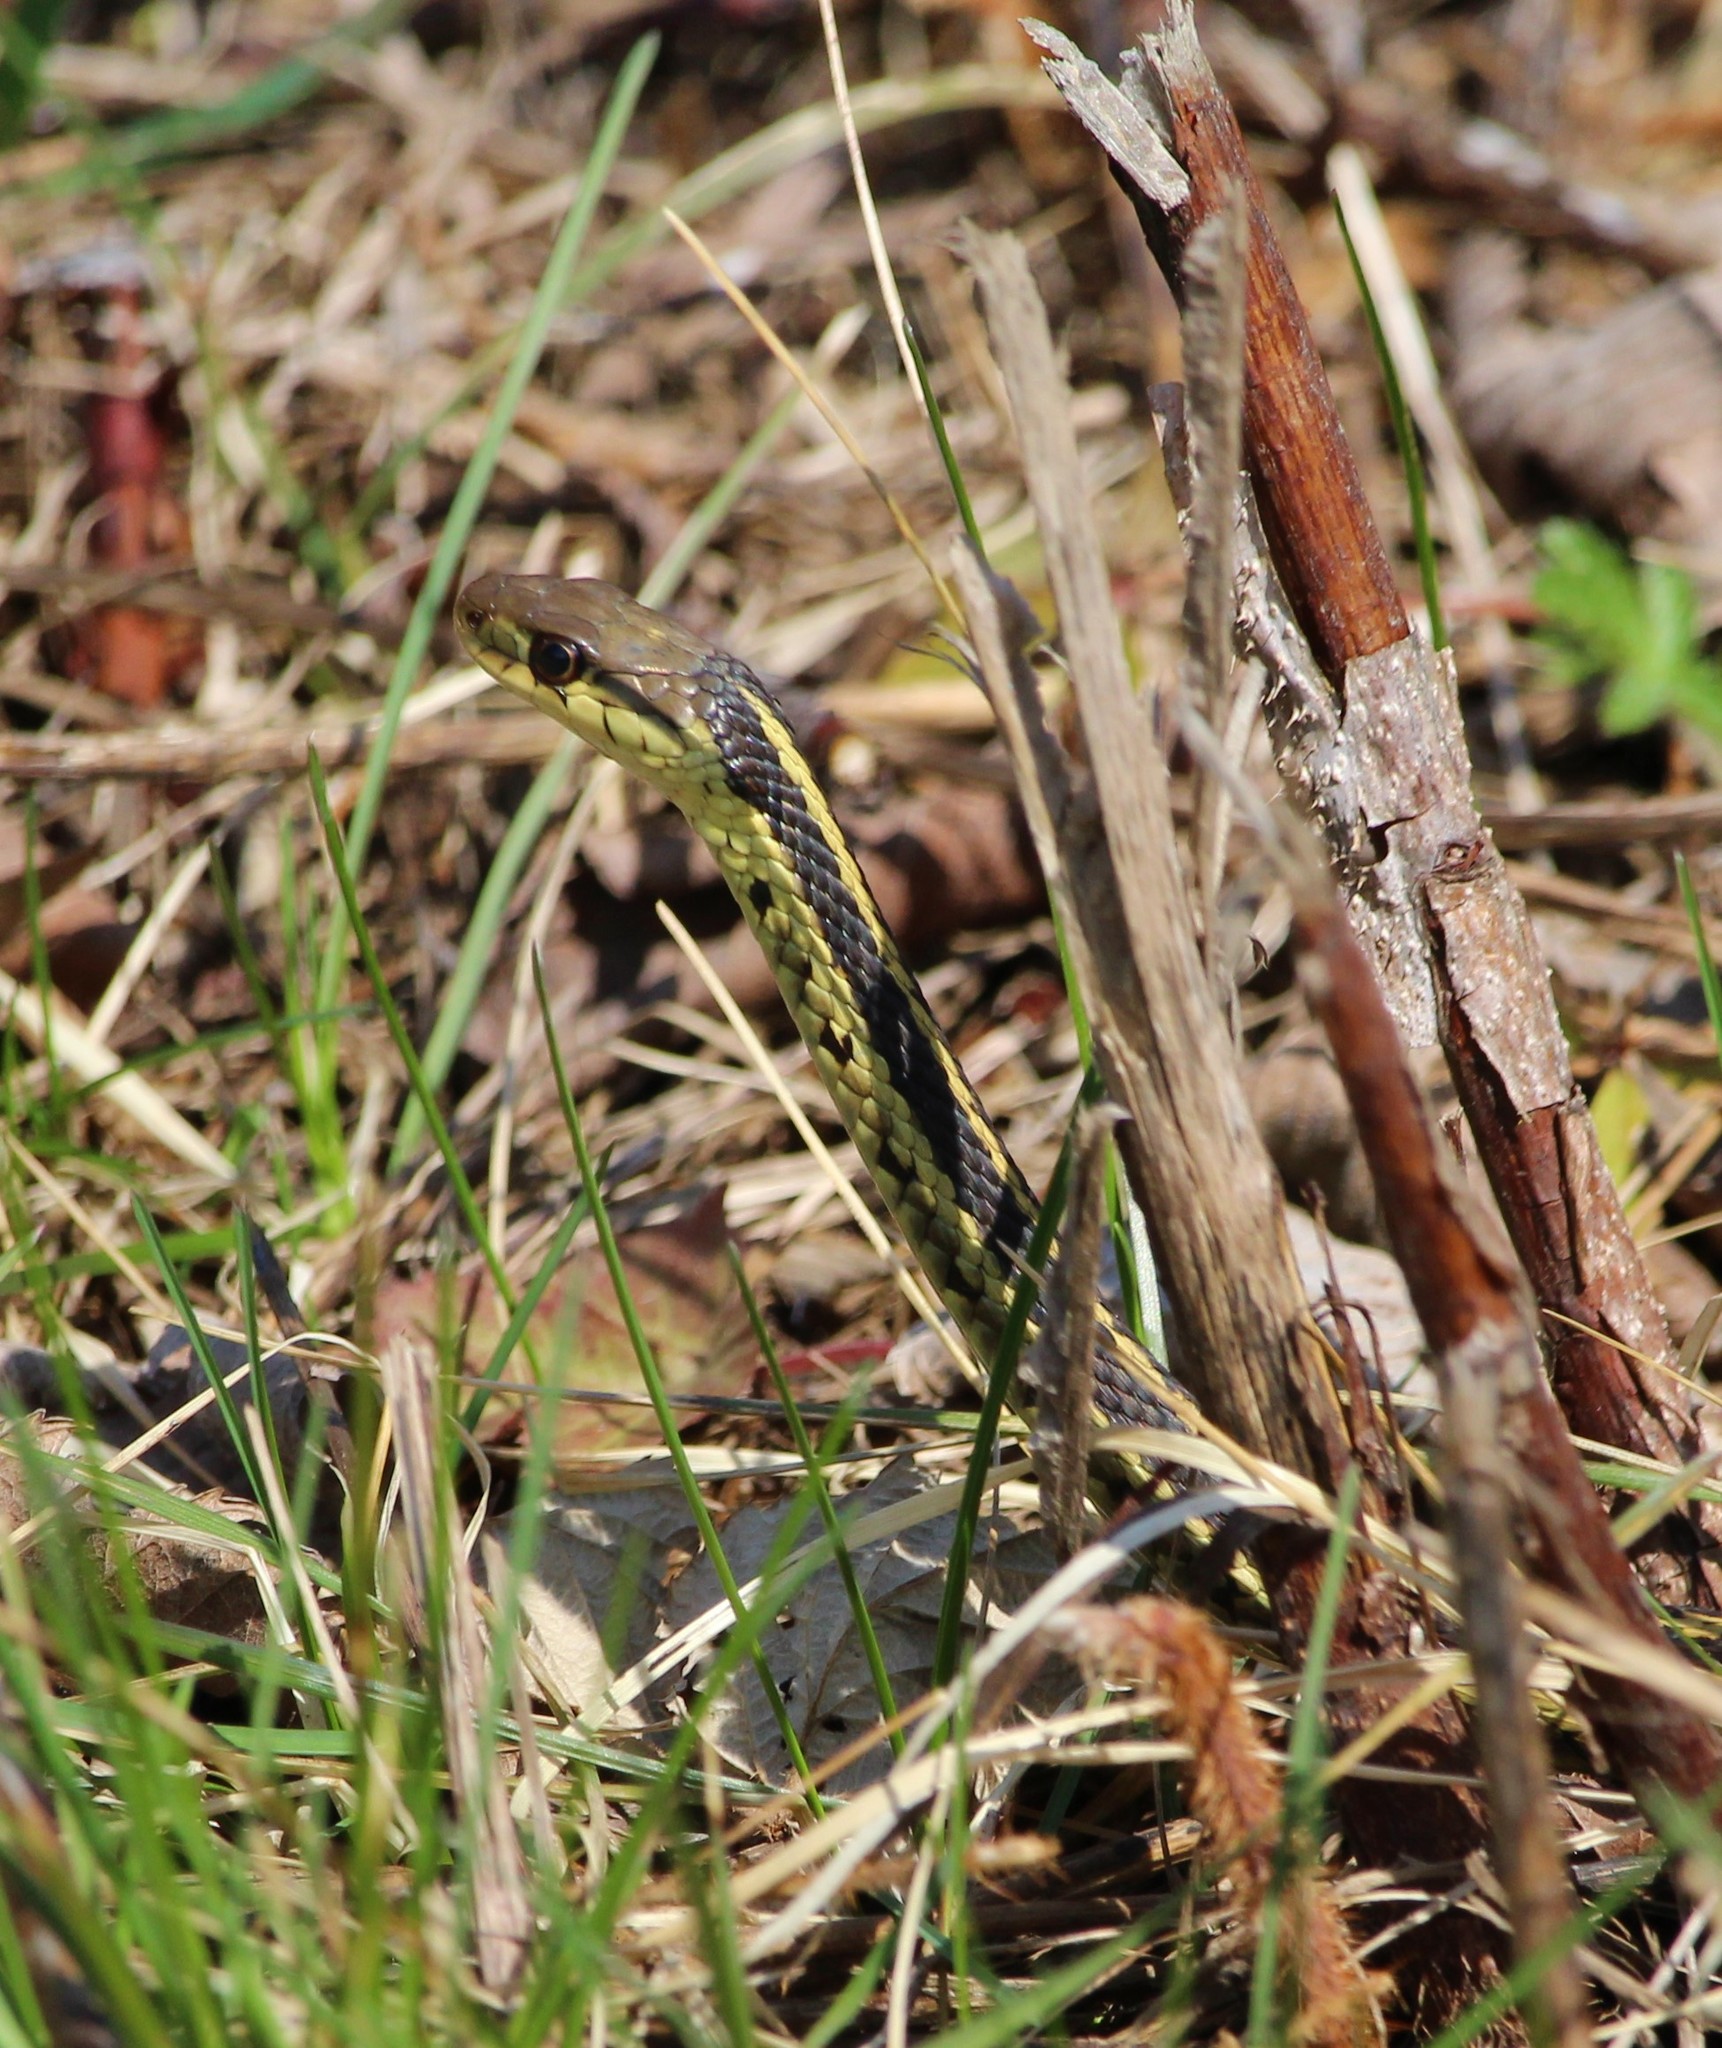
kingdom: Animalia
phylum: Chordata
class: Squamata
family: Colubridae
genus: Thamnophis
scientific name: Thamnophis sirtalis
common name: Common garter snake
